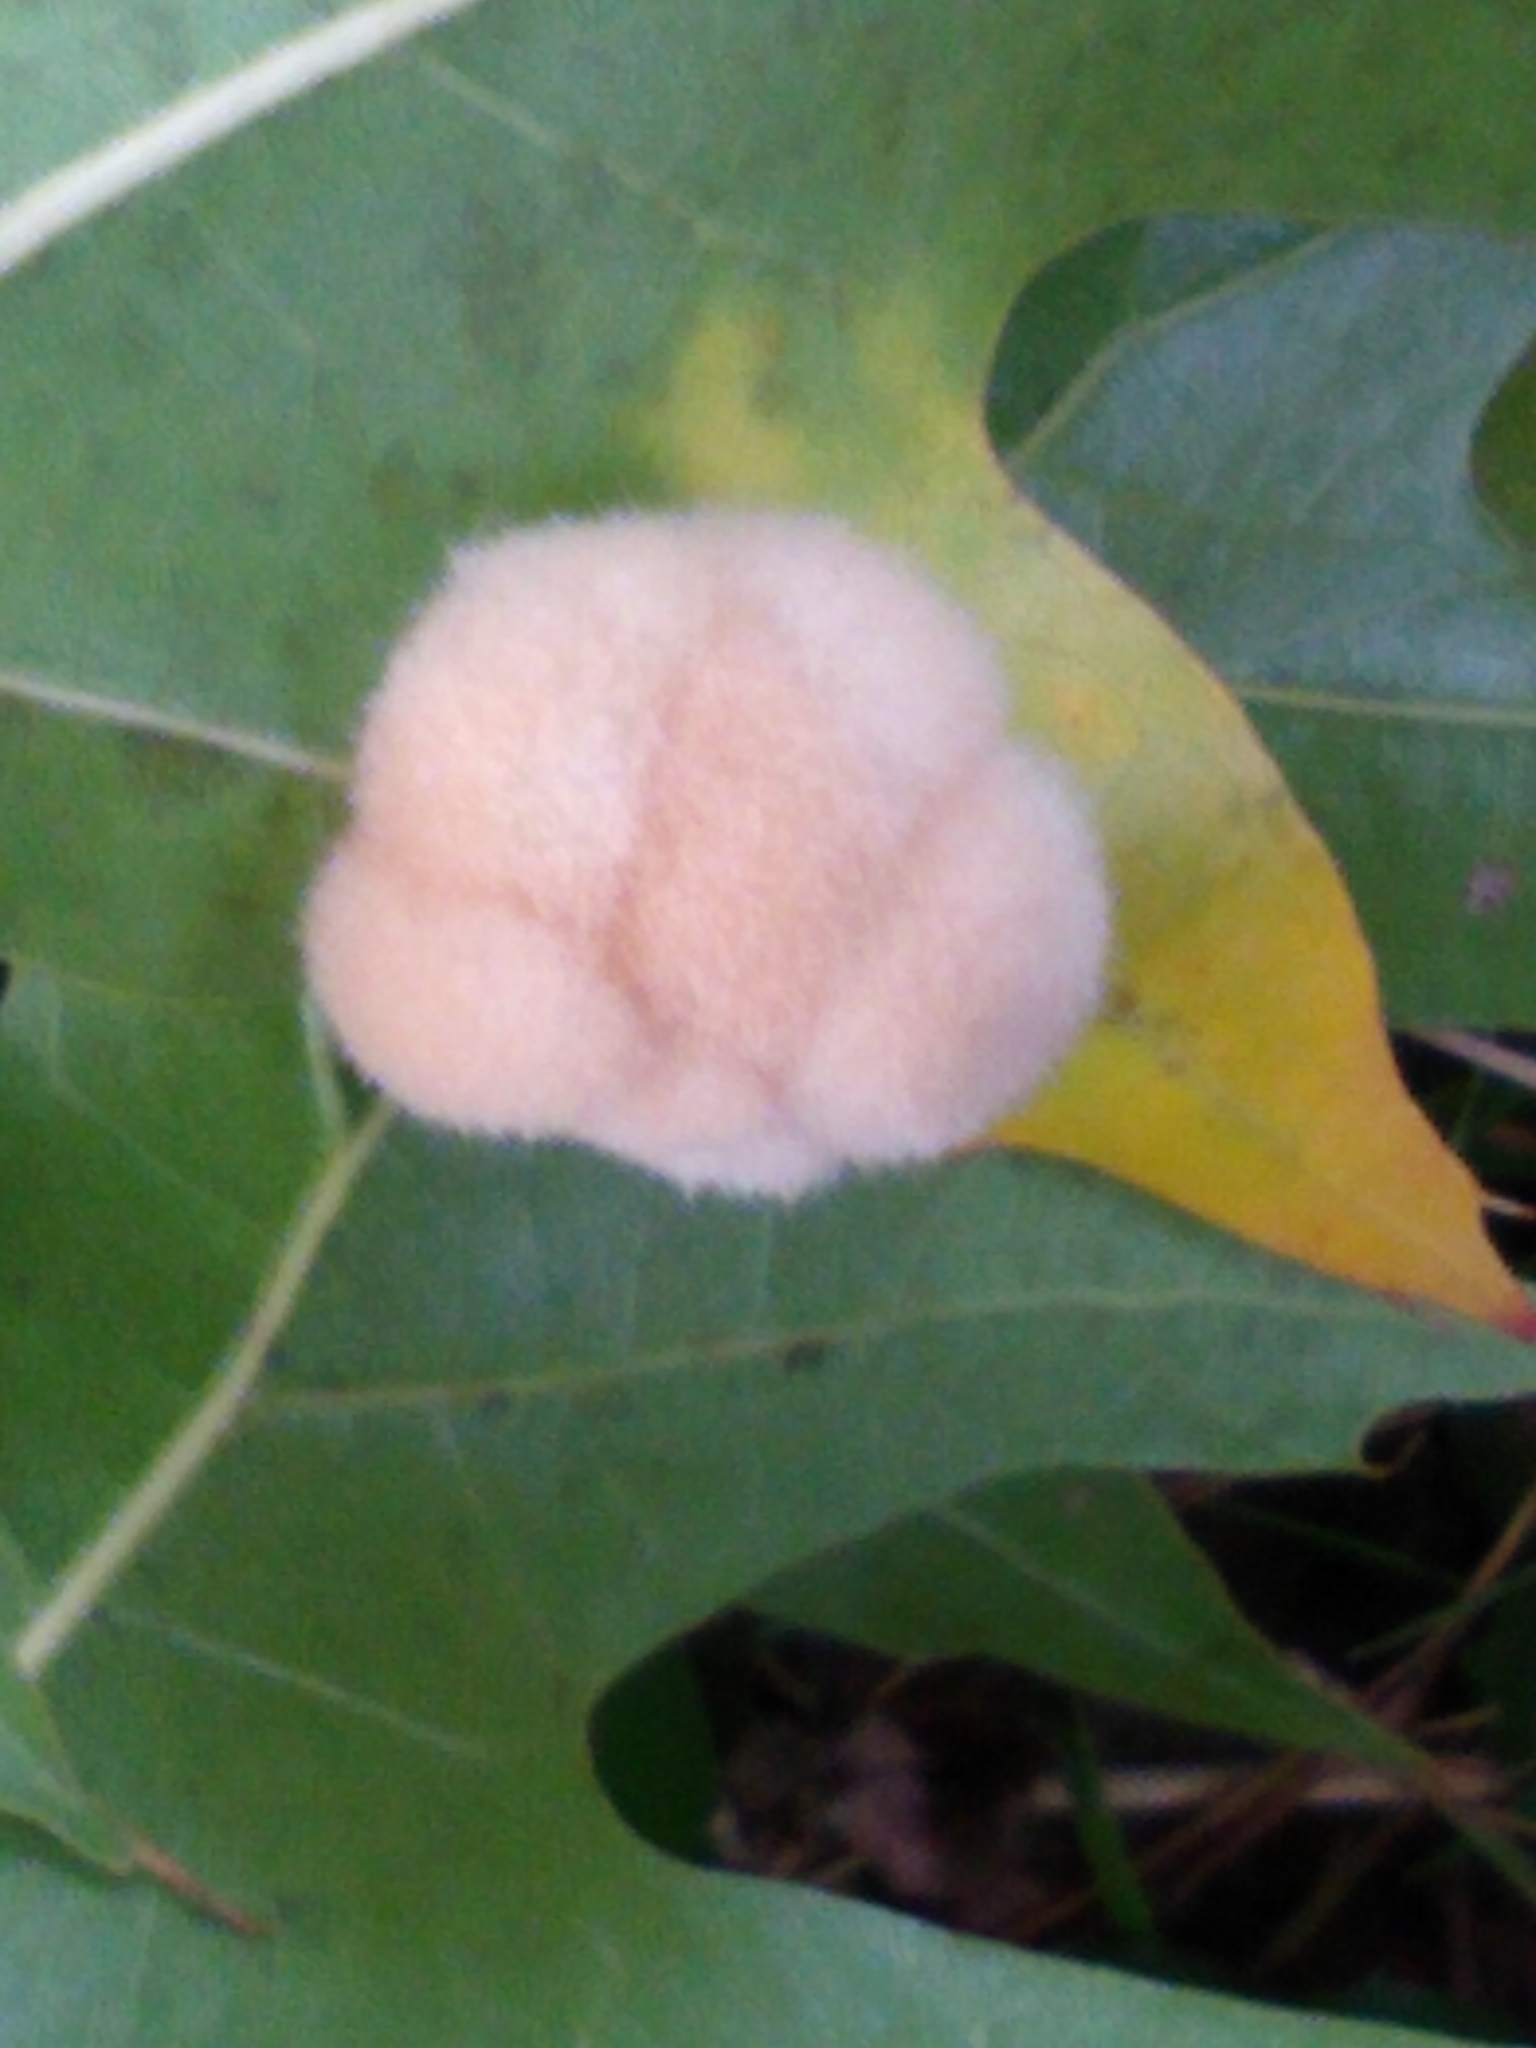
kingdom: Animalia
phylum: Arthropoda
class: Insecta
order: Hymenoptera
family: Cynipidae
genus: Callirhytis
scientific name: Callirhytis
